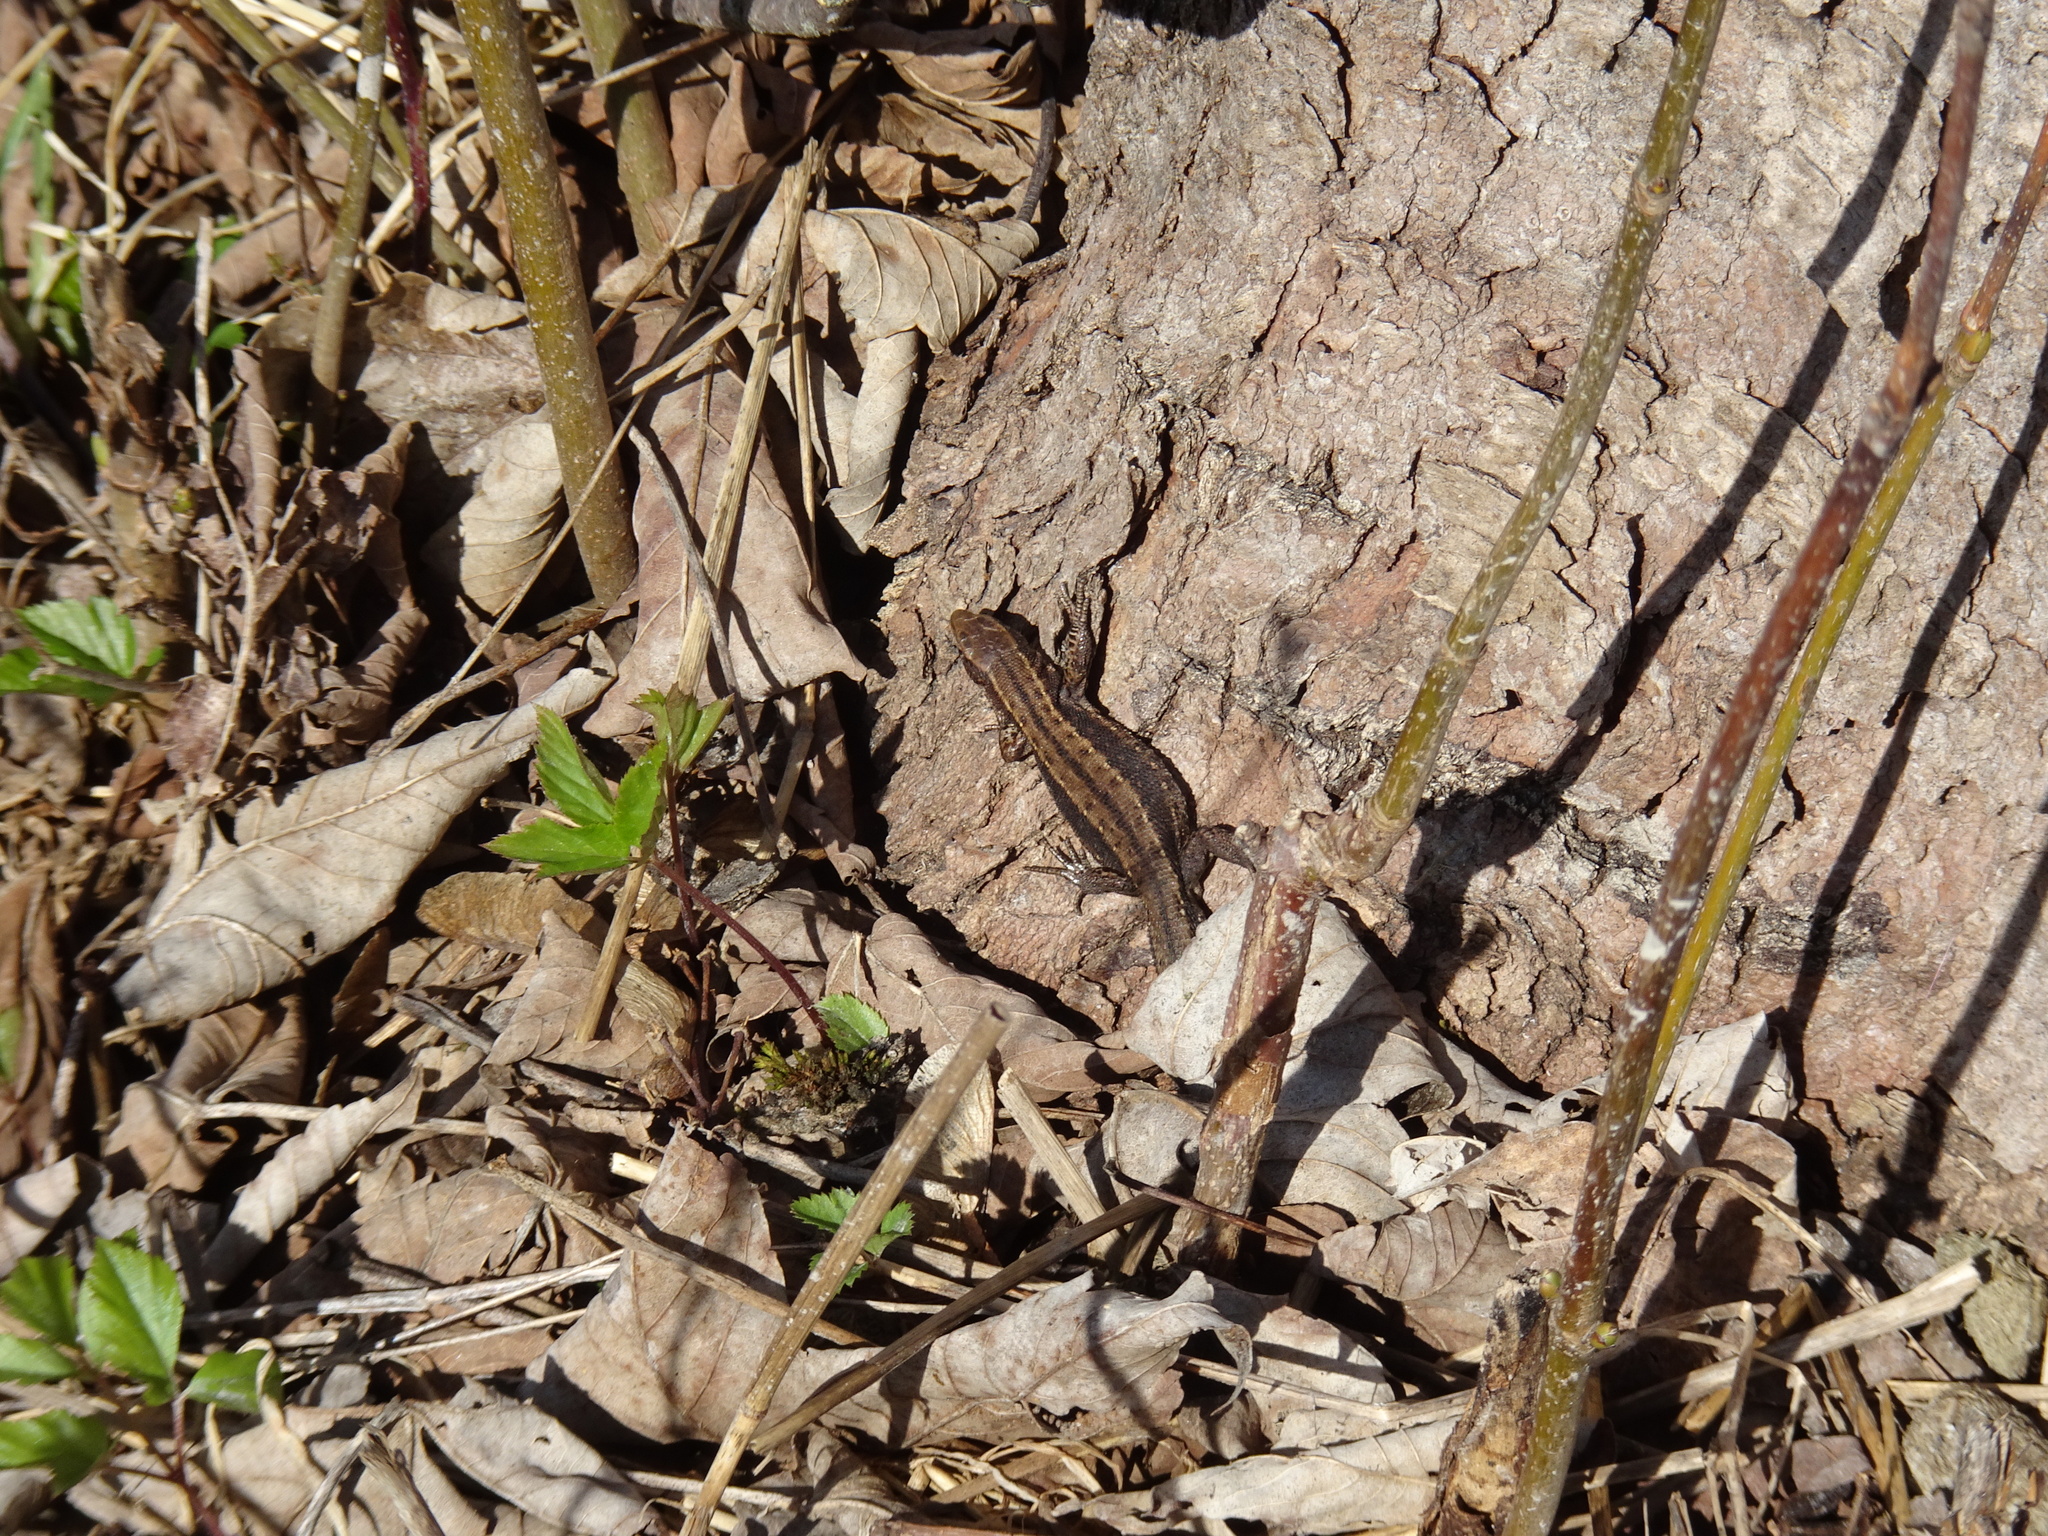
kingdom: Animalia
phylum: Chordata
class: Squamata
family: Lacertidae
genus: Zootoca
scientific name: Zootoca vivipara
